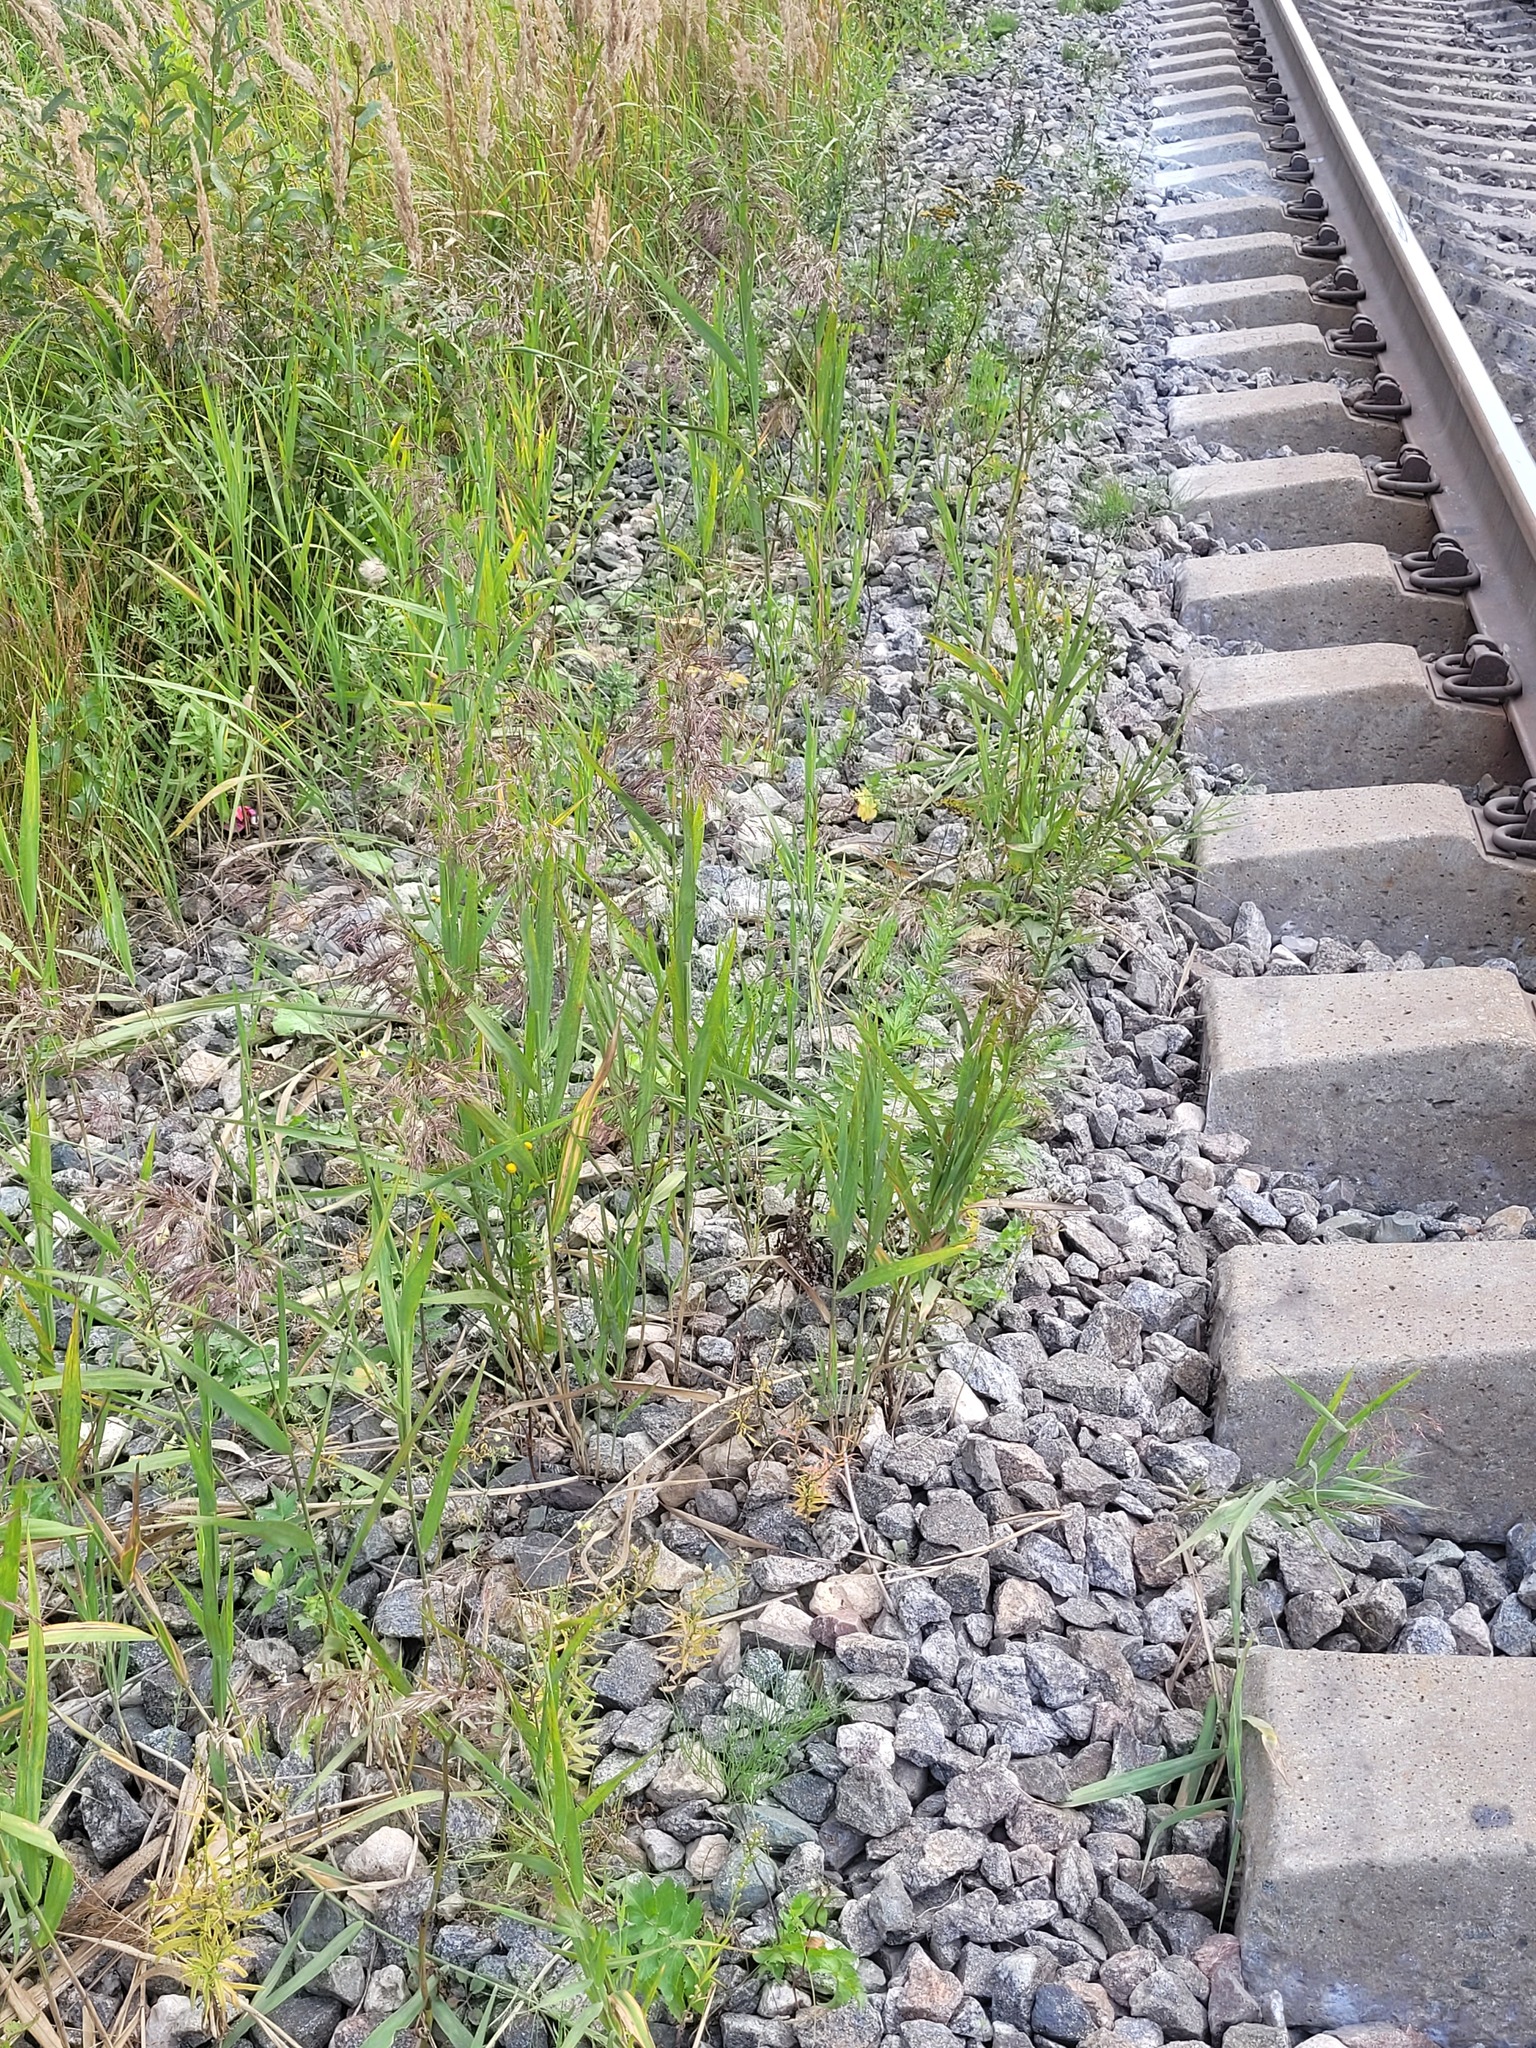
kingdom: Plantae
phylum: Tracheophyta
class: Liliopsida
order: Poales
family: Poaceae
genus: Phragmites
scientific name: Phragmites australis
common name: Common reed
